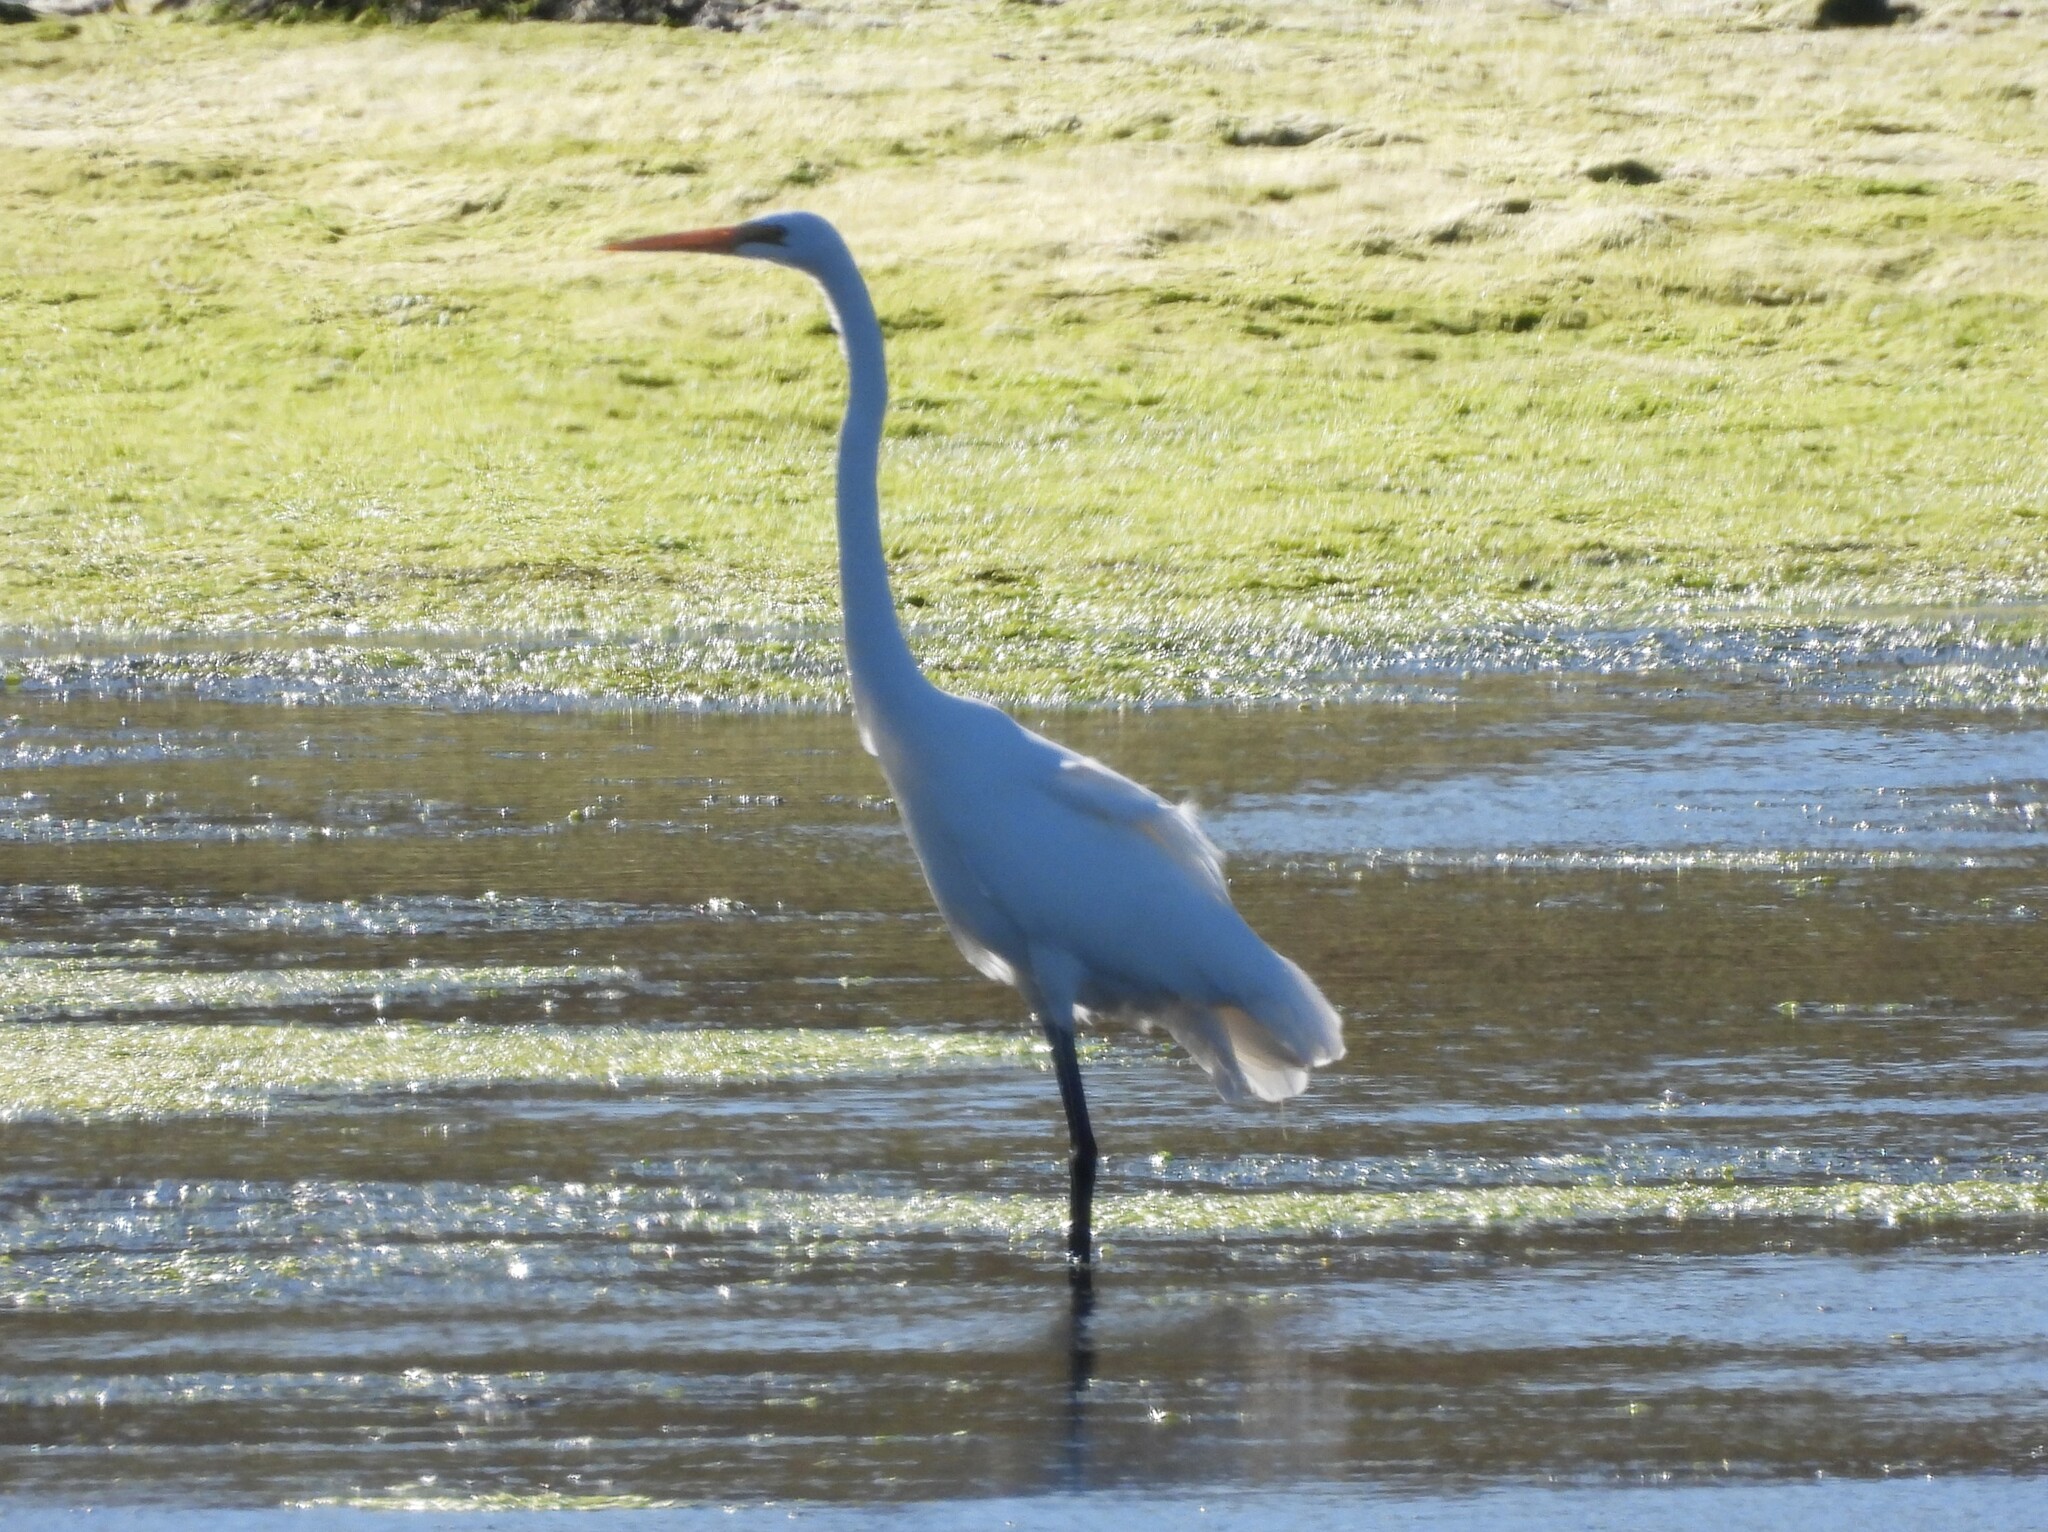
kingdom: Animalia
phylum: Chordata
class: Aves
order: Pelecaniformes
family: Ardeidae
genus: Ardea
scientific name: Ardea alba
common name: Great egret
